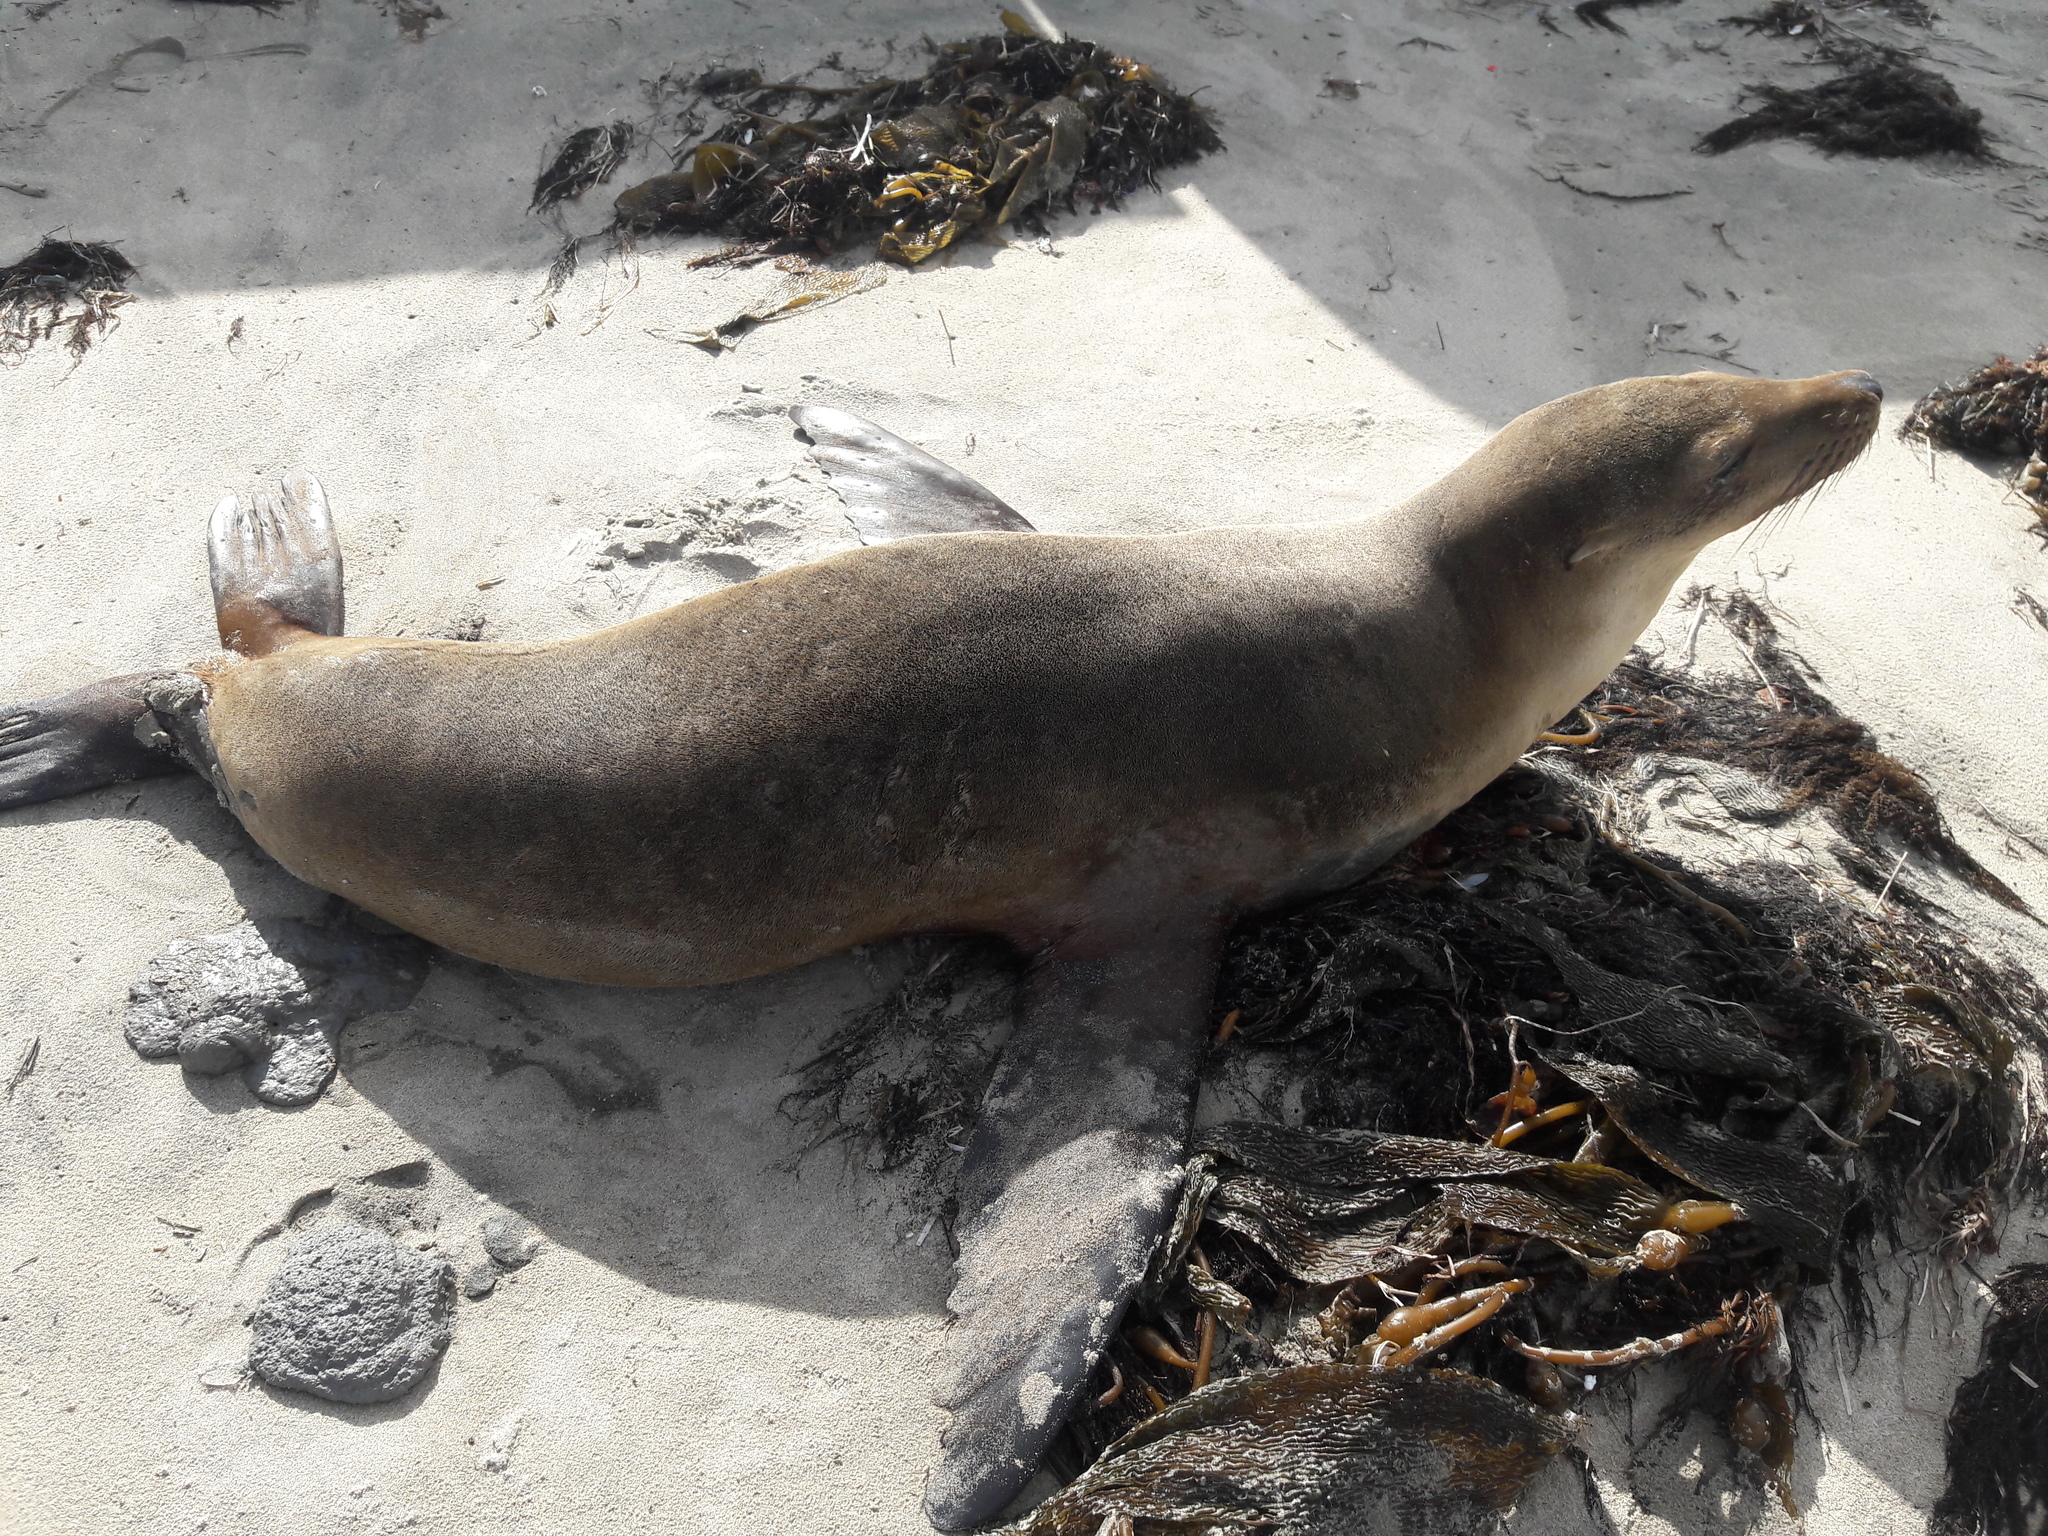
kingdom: Animalia
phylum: Chordata
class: Mammalia
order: Carnivora
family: Otariidae
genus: Zalophus
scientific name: Zalophus californianus
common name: California sea lion
